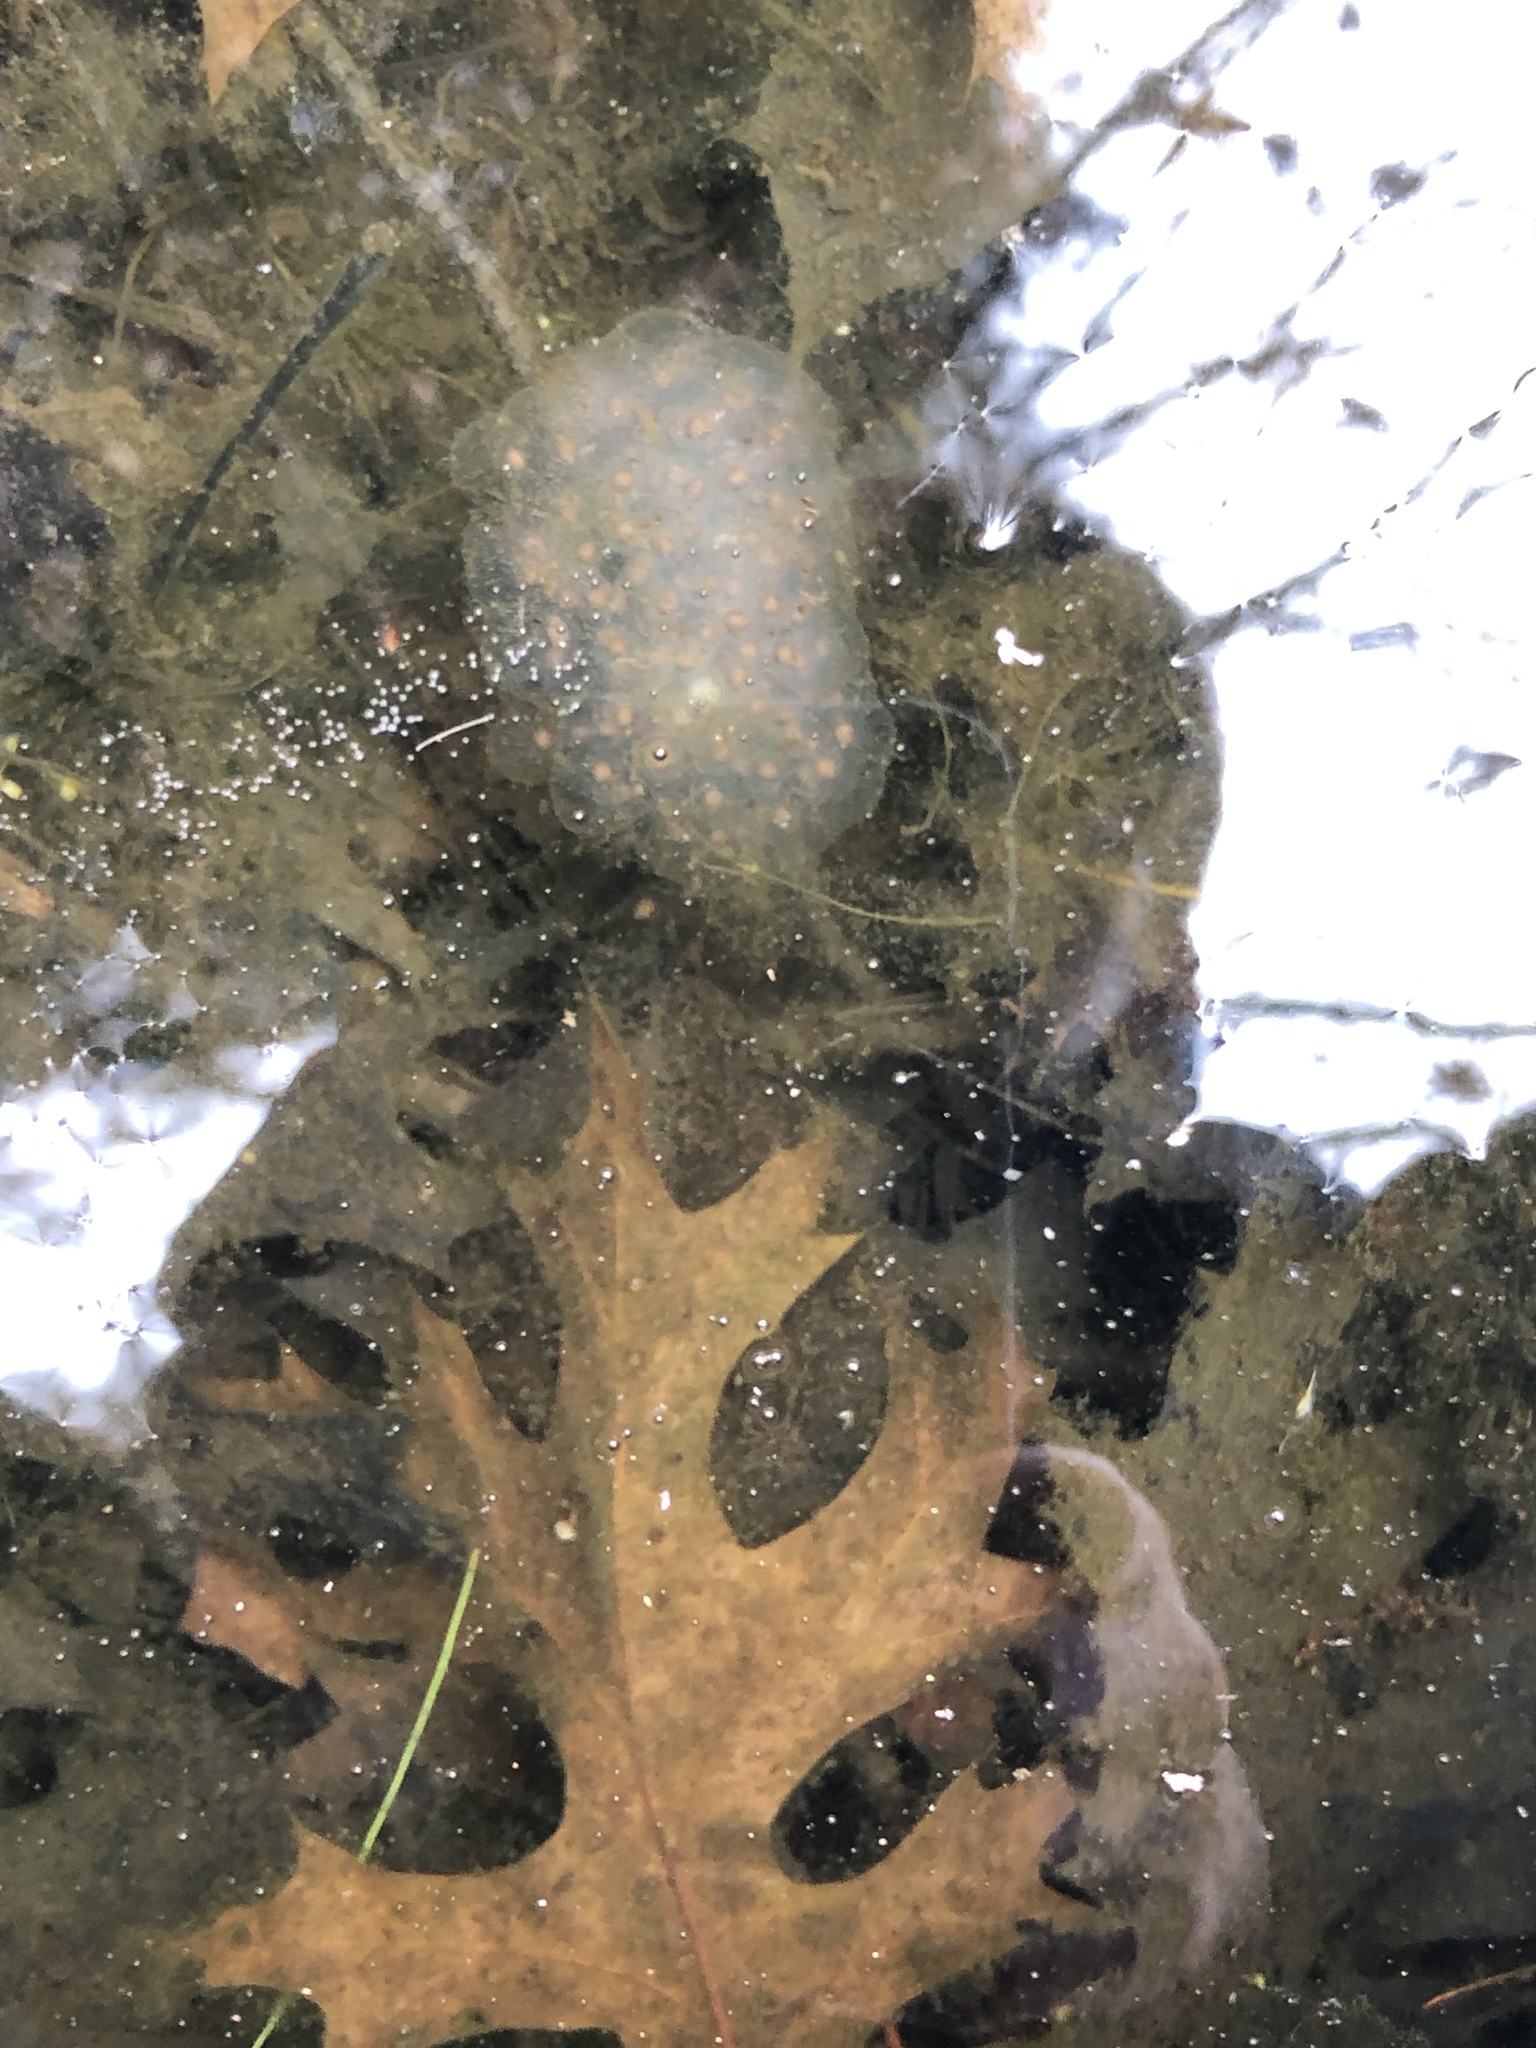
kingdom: Animalia
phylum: Chordata
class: Amphibia
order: Caudata
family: Ambystomatidae
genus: Ambystoma
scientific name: Ambystoma maculatum
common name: Spotted salamander
